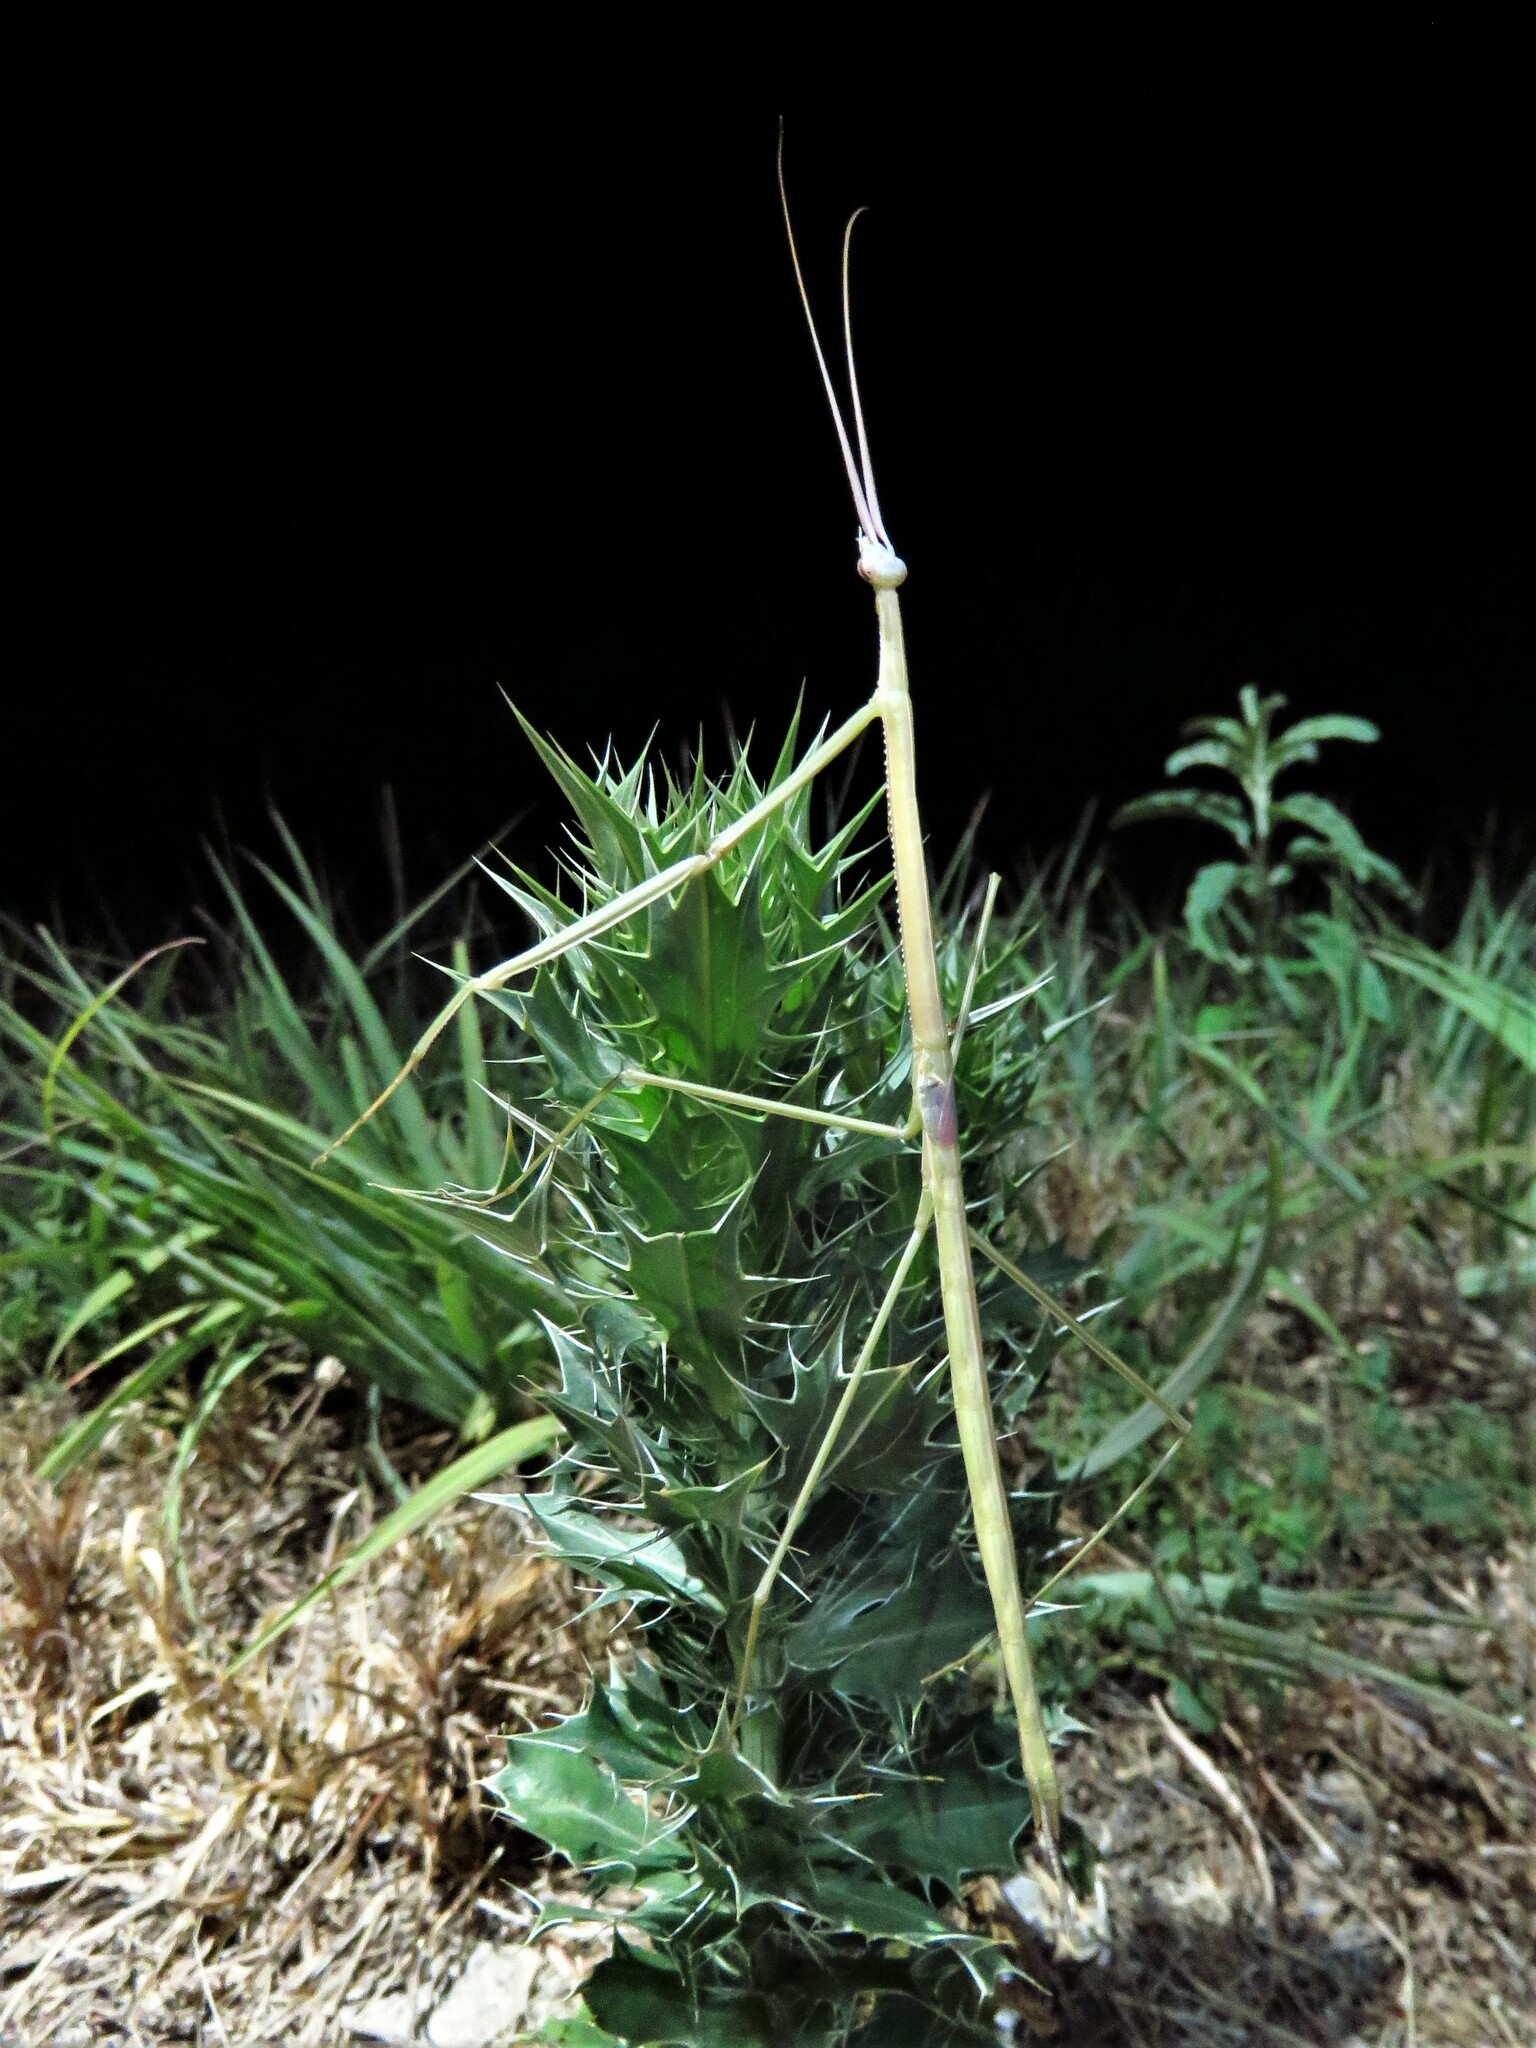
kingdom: Animalia
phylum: Arthropoda
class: Insecta
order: Mantodea
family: Coptopterygidae
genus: Brunneria
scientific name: Brunneria borealis
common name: Mantis
